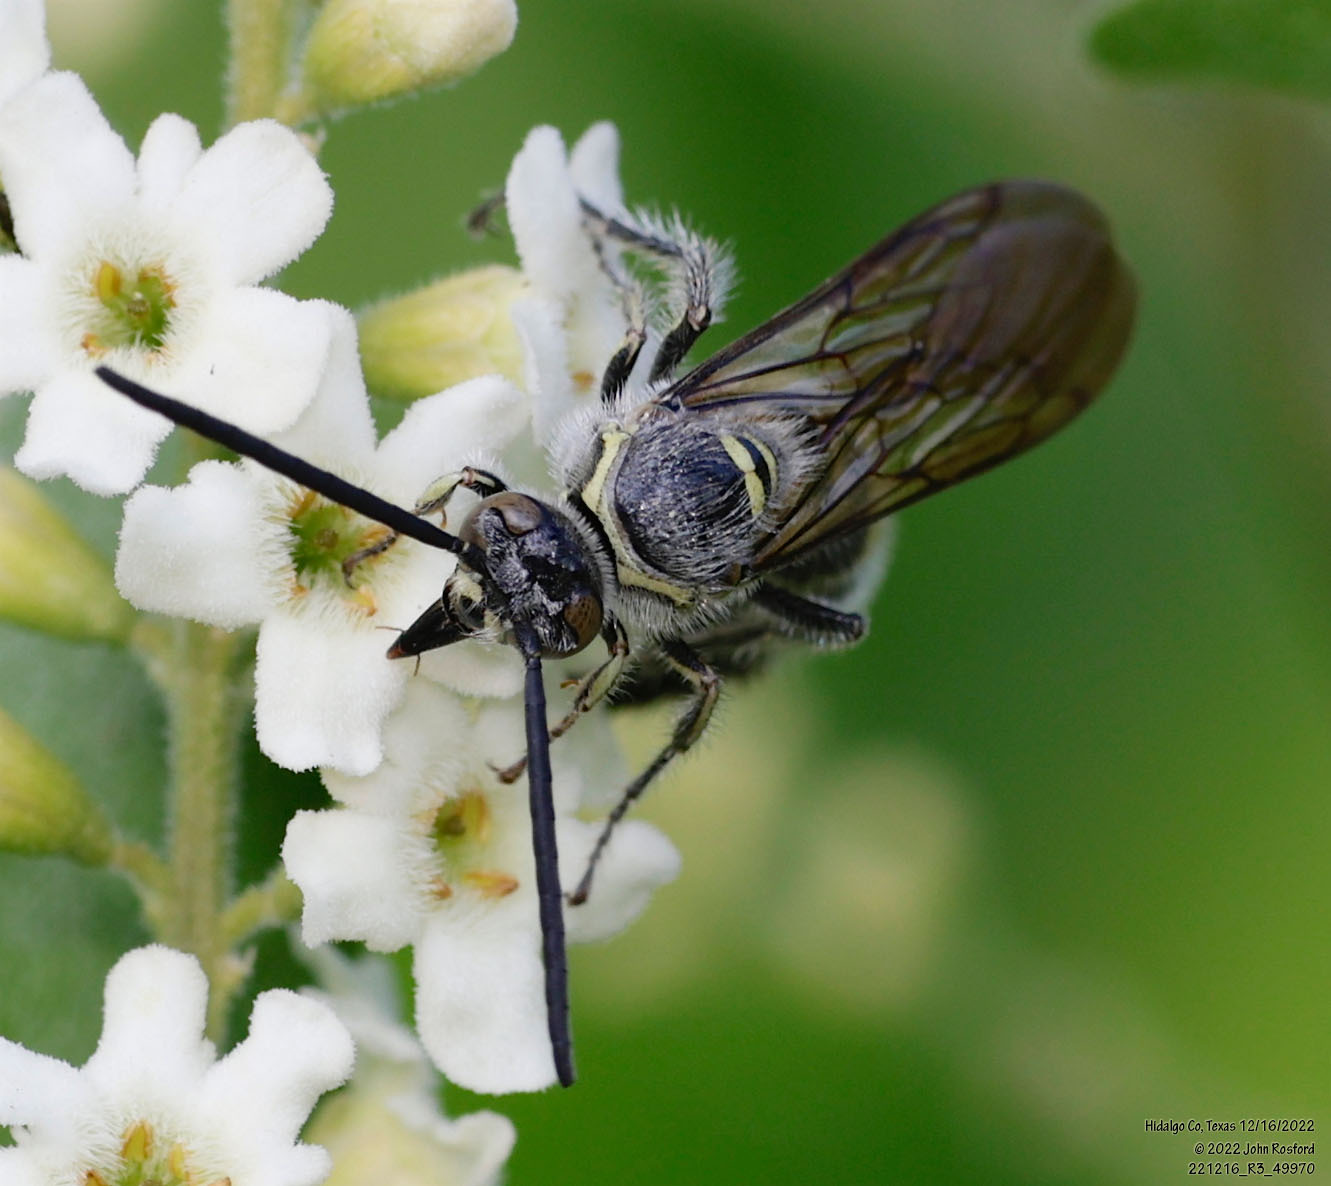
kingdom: Animalia
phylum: Arthropoda
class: Insecta
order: Hymenoptera
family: Scoliidae
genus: Dielis
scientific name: Dielis tolteca
